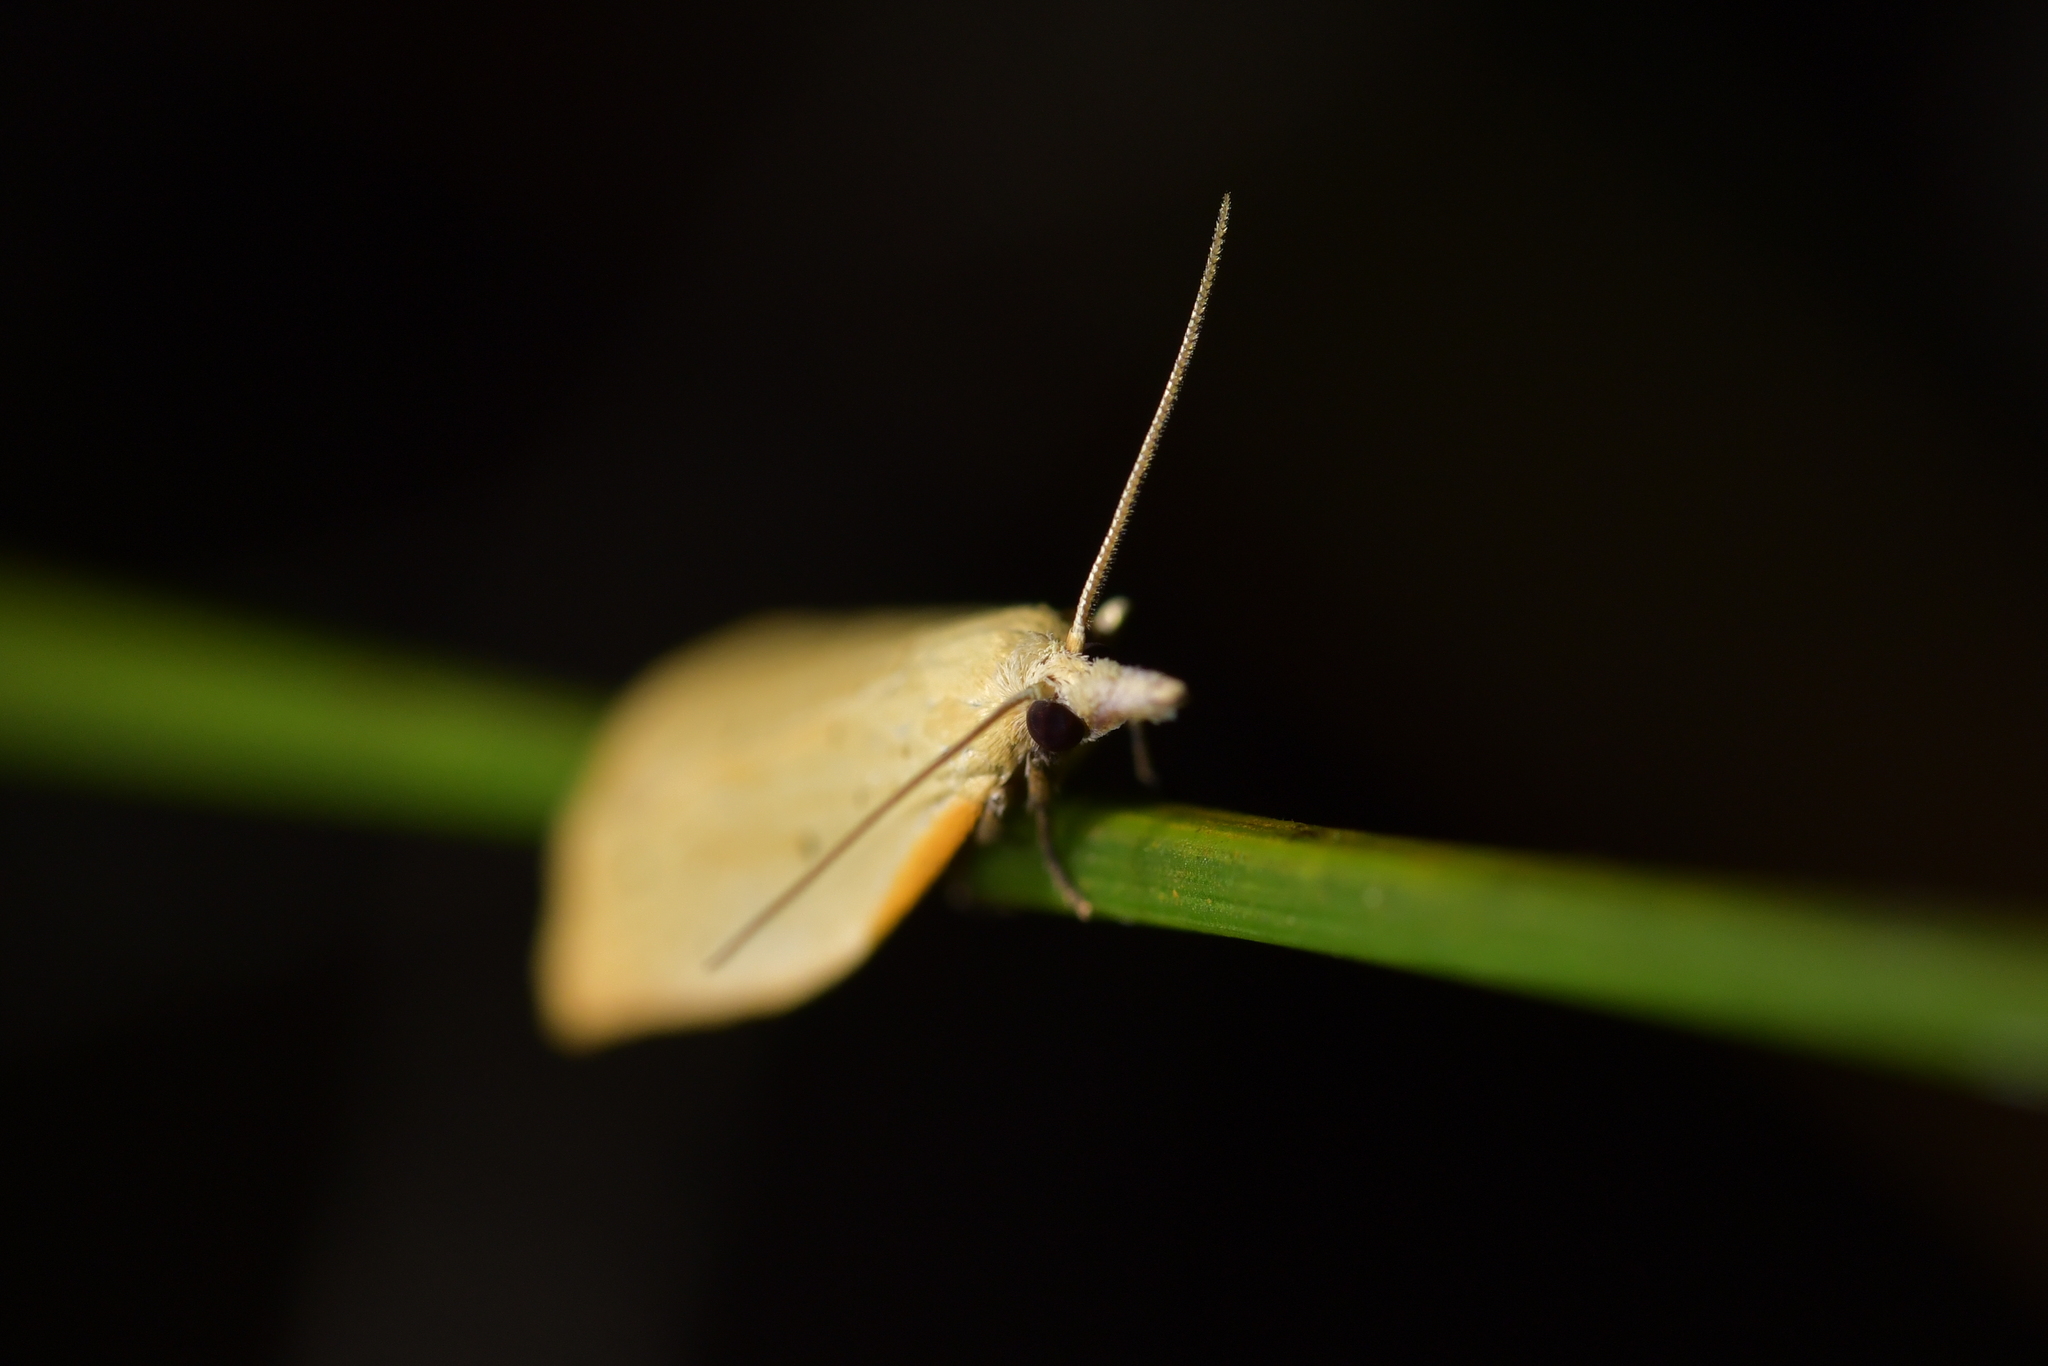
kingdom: Animalia
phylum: Arthropoda
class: Insecta
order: Lepidoptera
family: Tortricidae
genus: Apoctena
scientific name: Apoctena conditana
